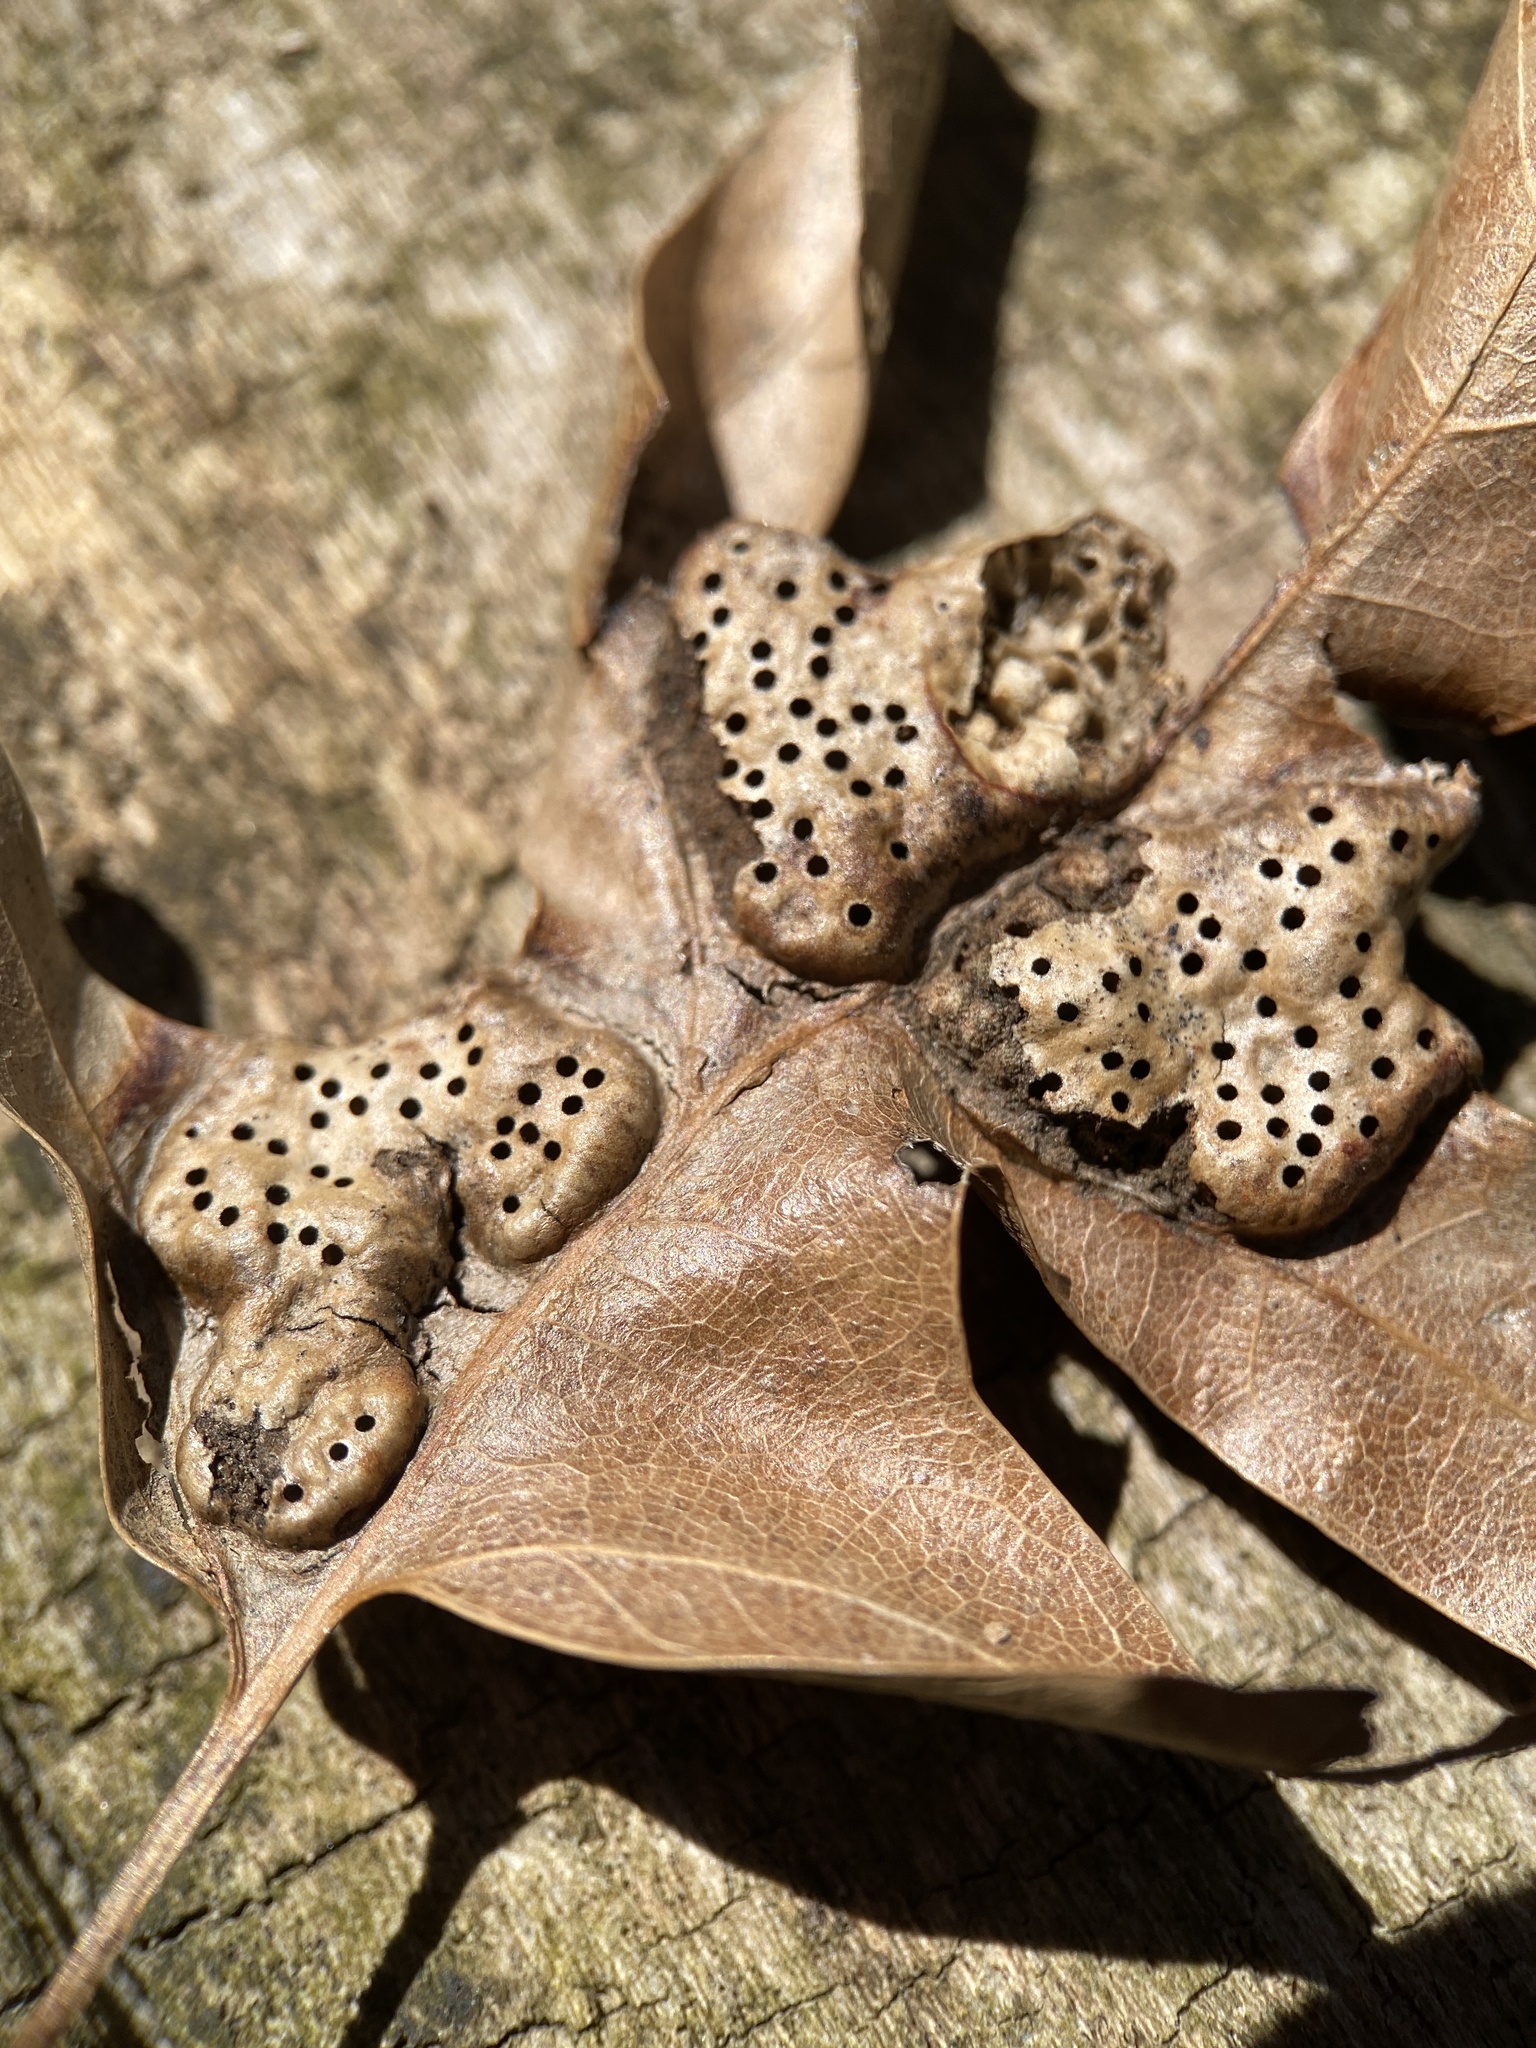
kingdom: Animalia
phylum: Arthropoda
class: Insecta
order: Hymenoptera
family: Cynipidae
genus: Callirhytis
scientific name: Callirhytis
